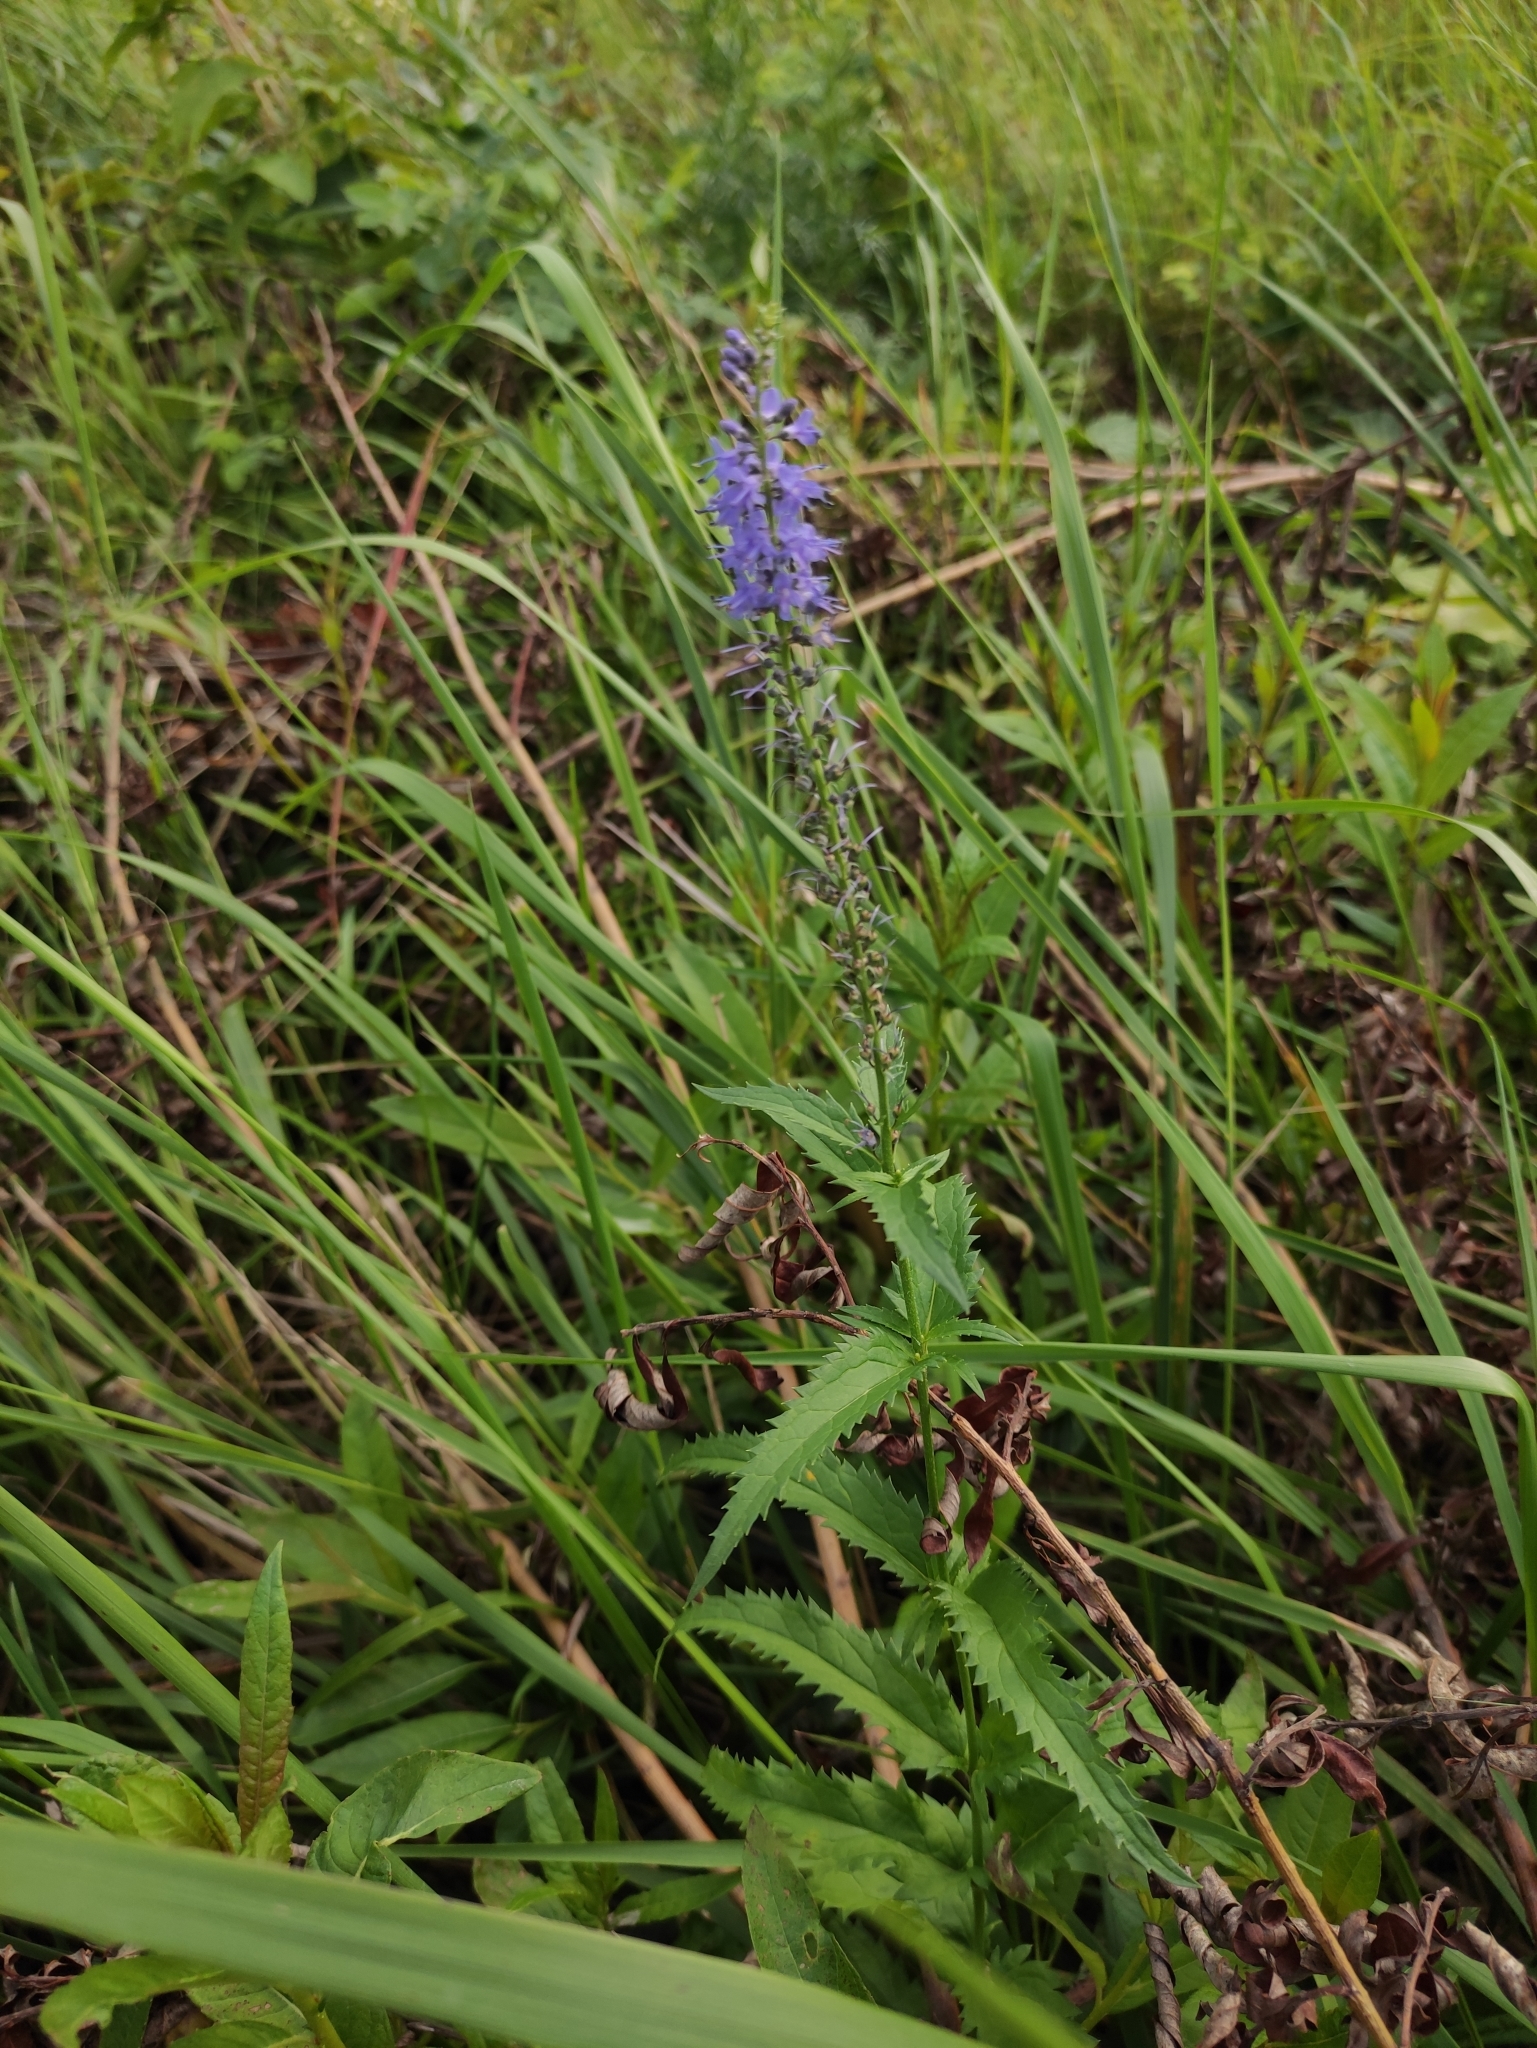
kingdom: Plantae
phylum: Tracheophyta
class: Magnoliopsida
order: Lamiales
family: Plantaginaceae
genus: Veronica
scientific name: Veronica longifolia
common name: Garden speedwell
